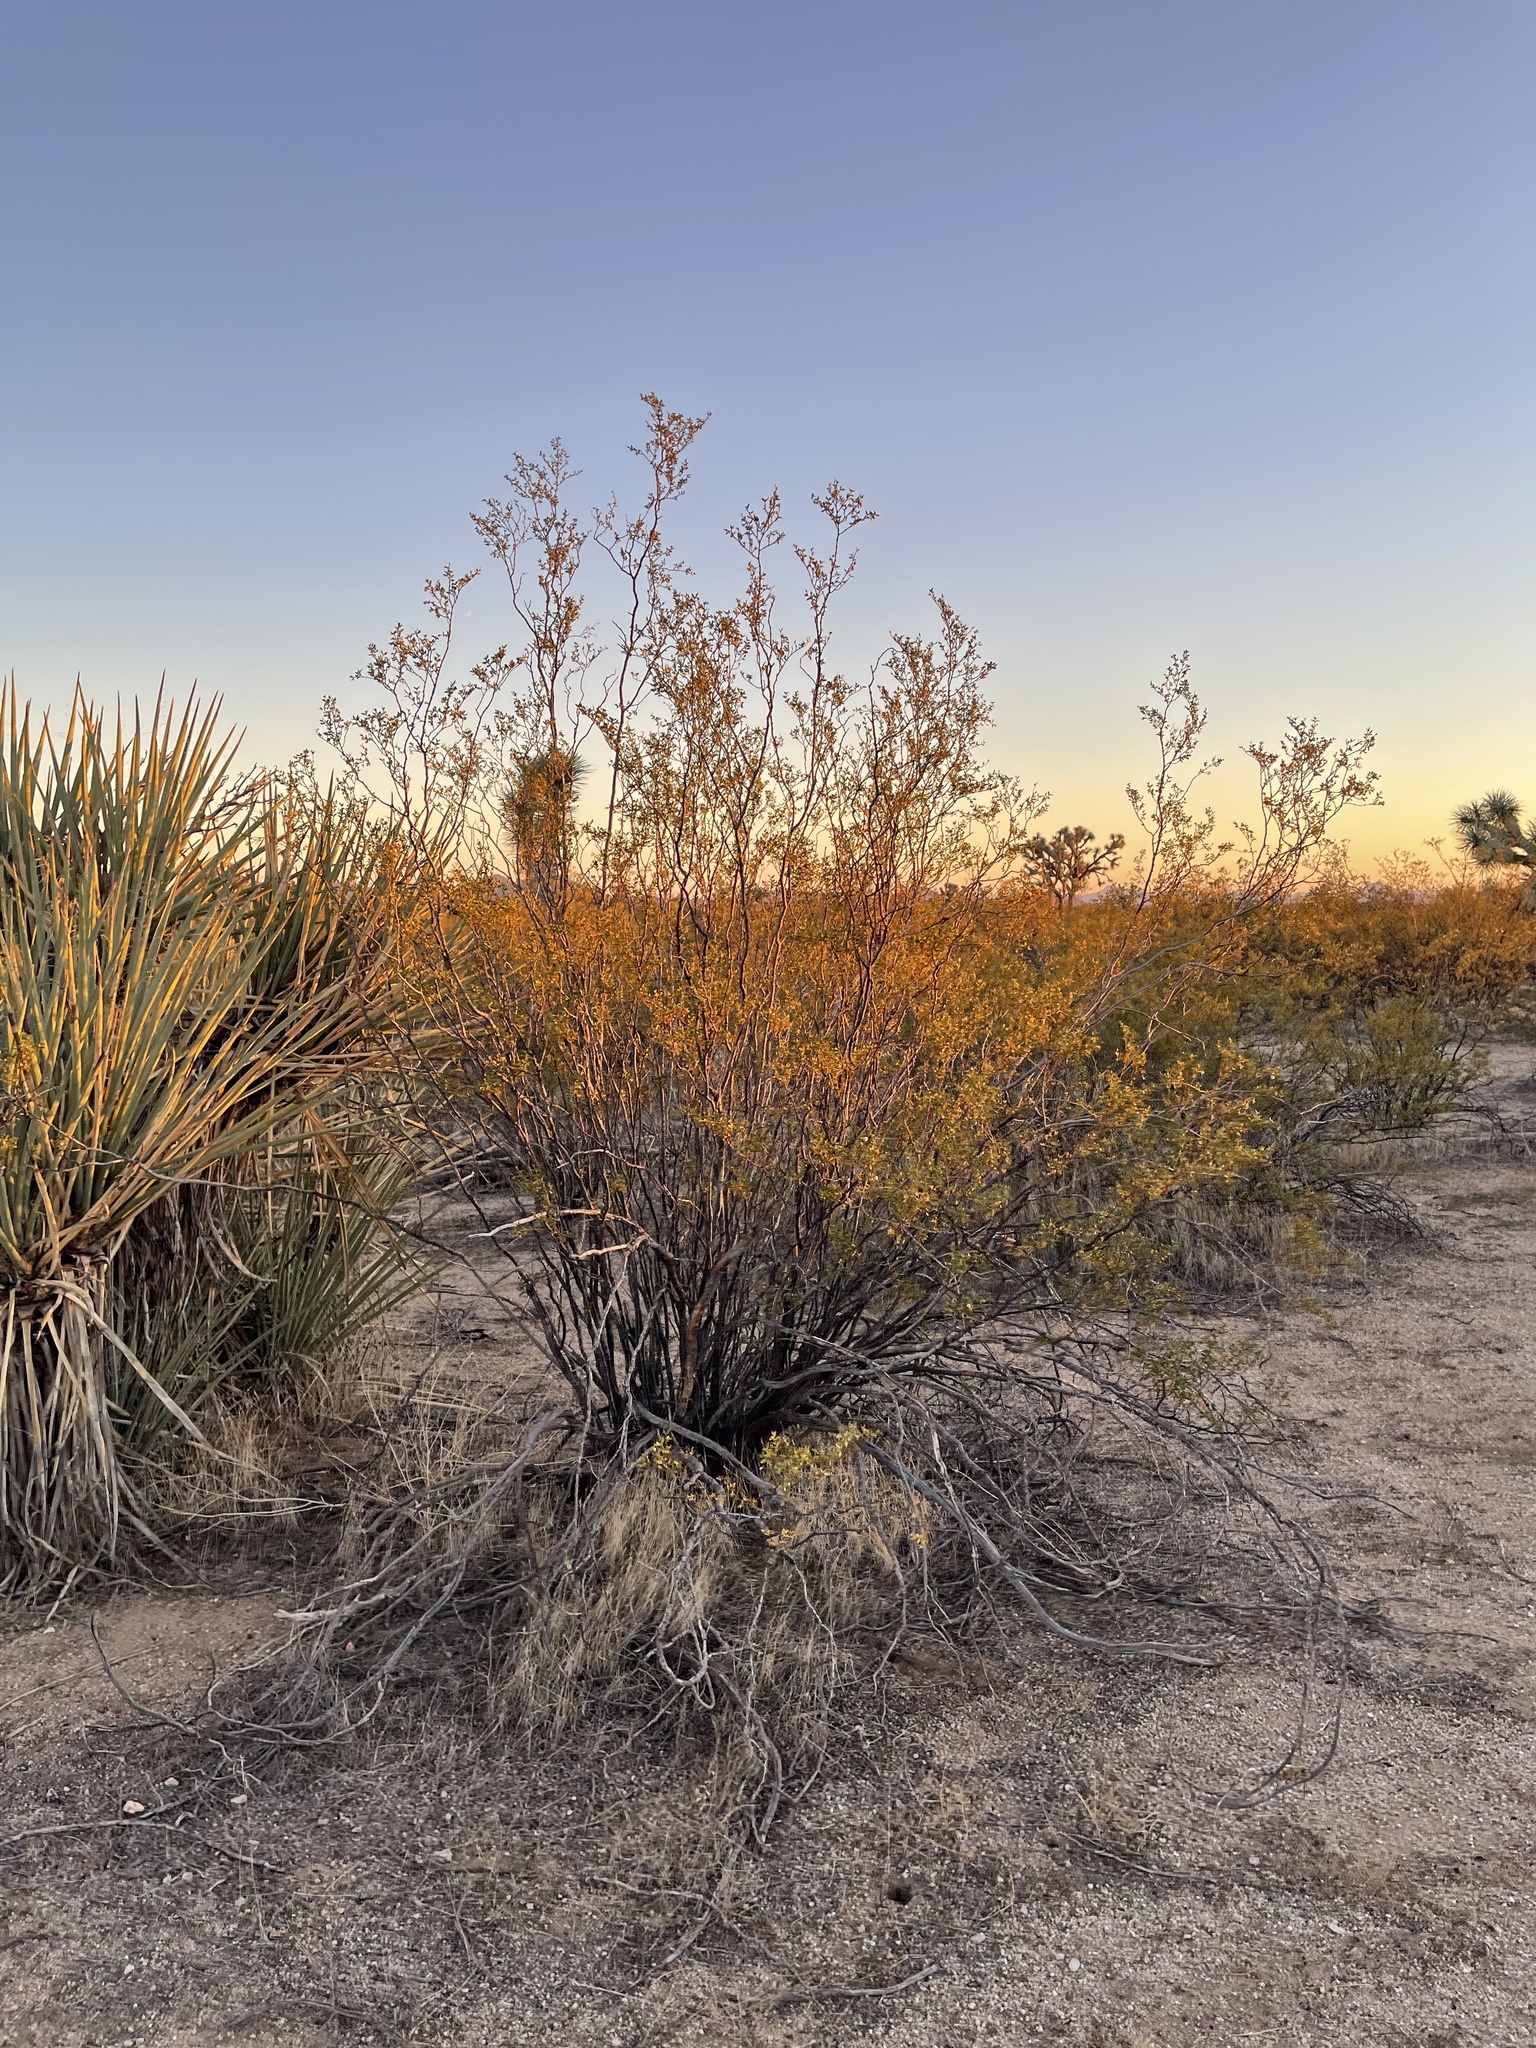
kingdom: Plantae
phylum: Tracheophyta
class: Magnoliopsida
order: Zygophyllales
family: Zygophyllaceae
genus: Larrea
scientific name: Larrea tridentata
